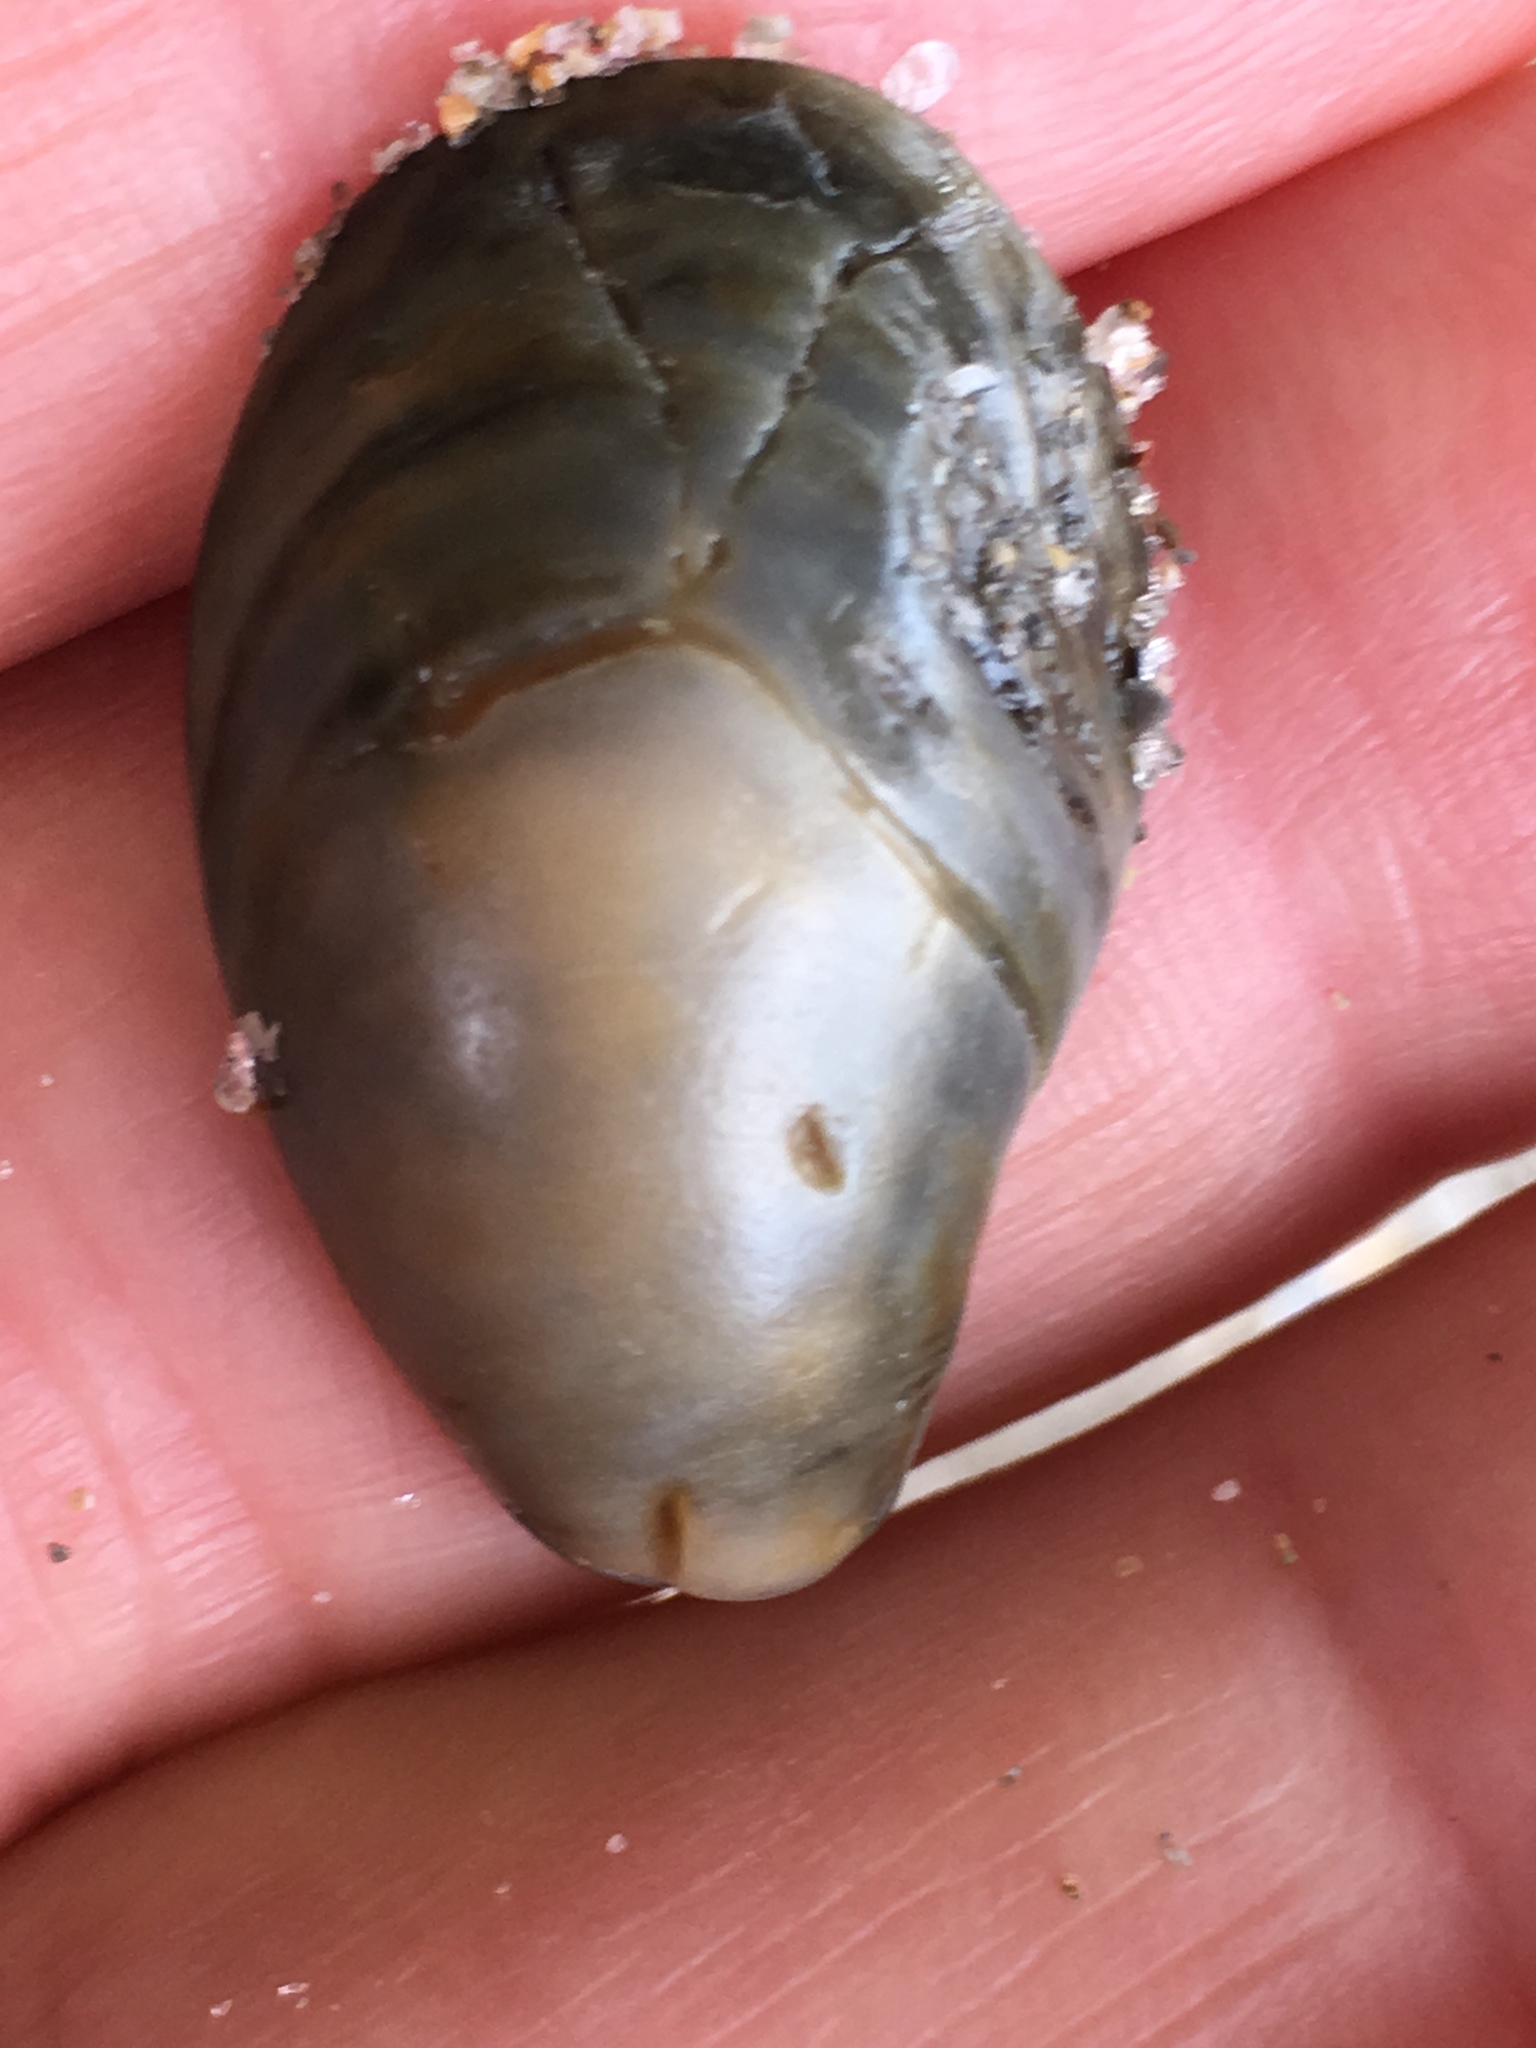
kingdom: Animalia
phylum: Mollusca
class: Gastropoda
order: Littorinimorpha
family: Calyptraeidae
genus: Crepidula
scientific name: Crepidula fornicata
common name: Slipper limpet
